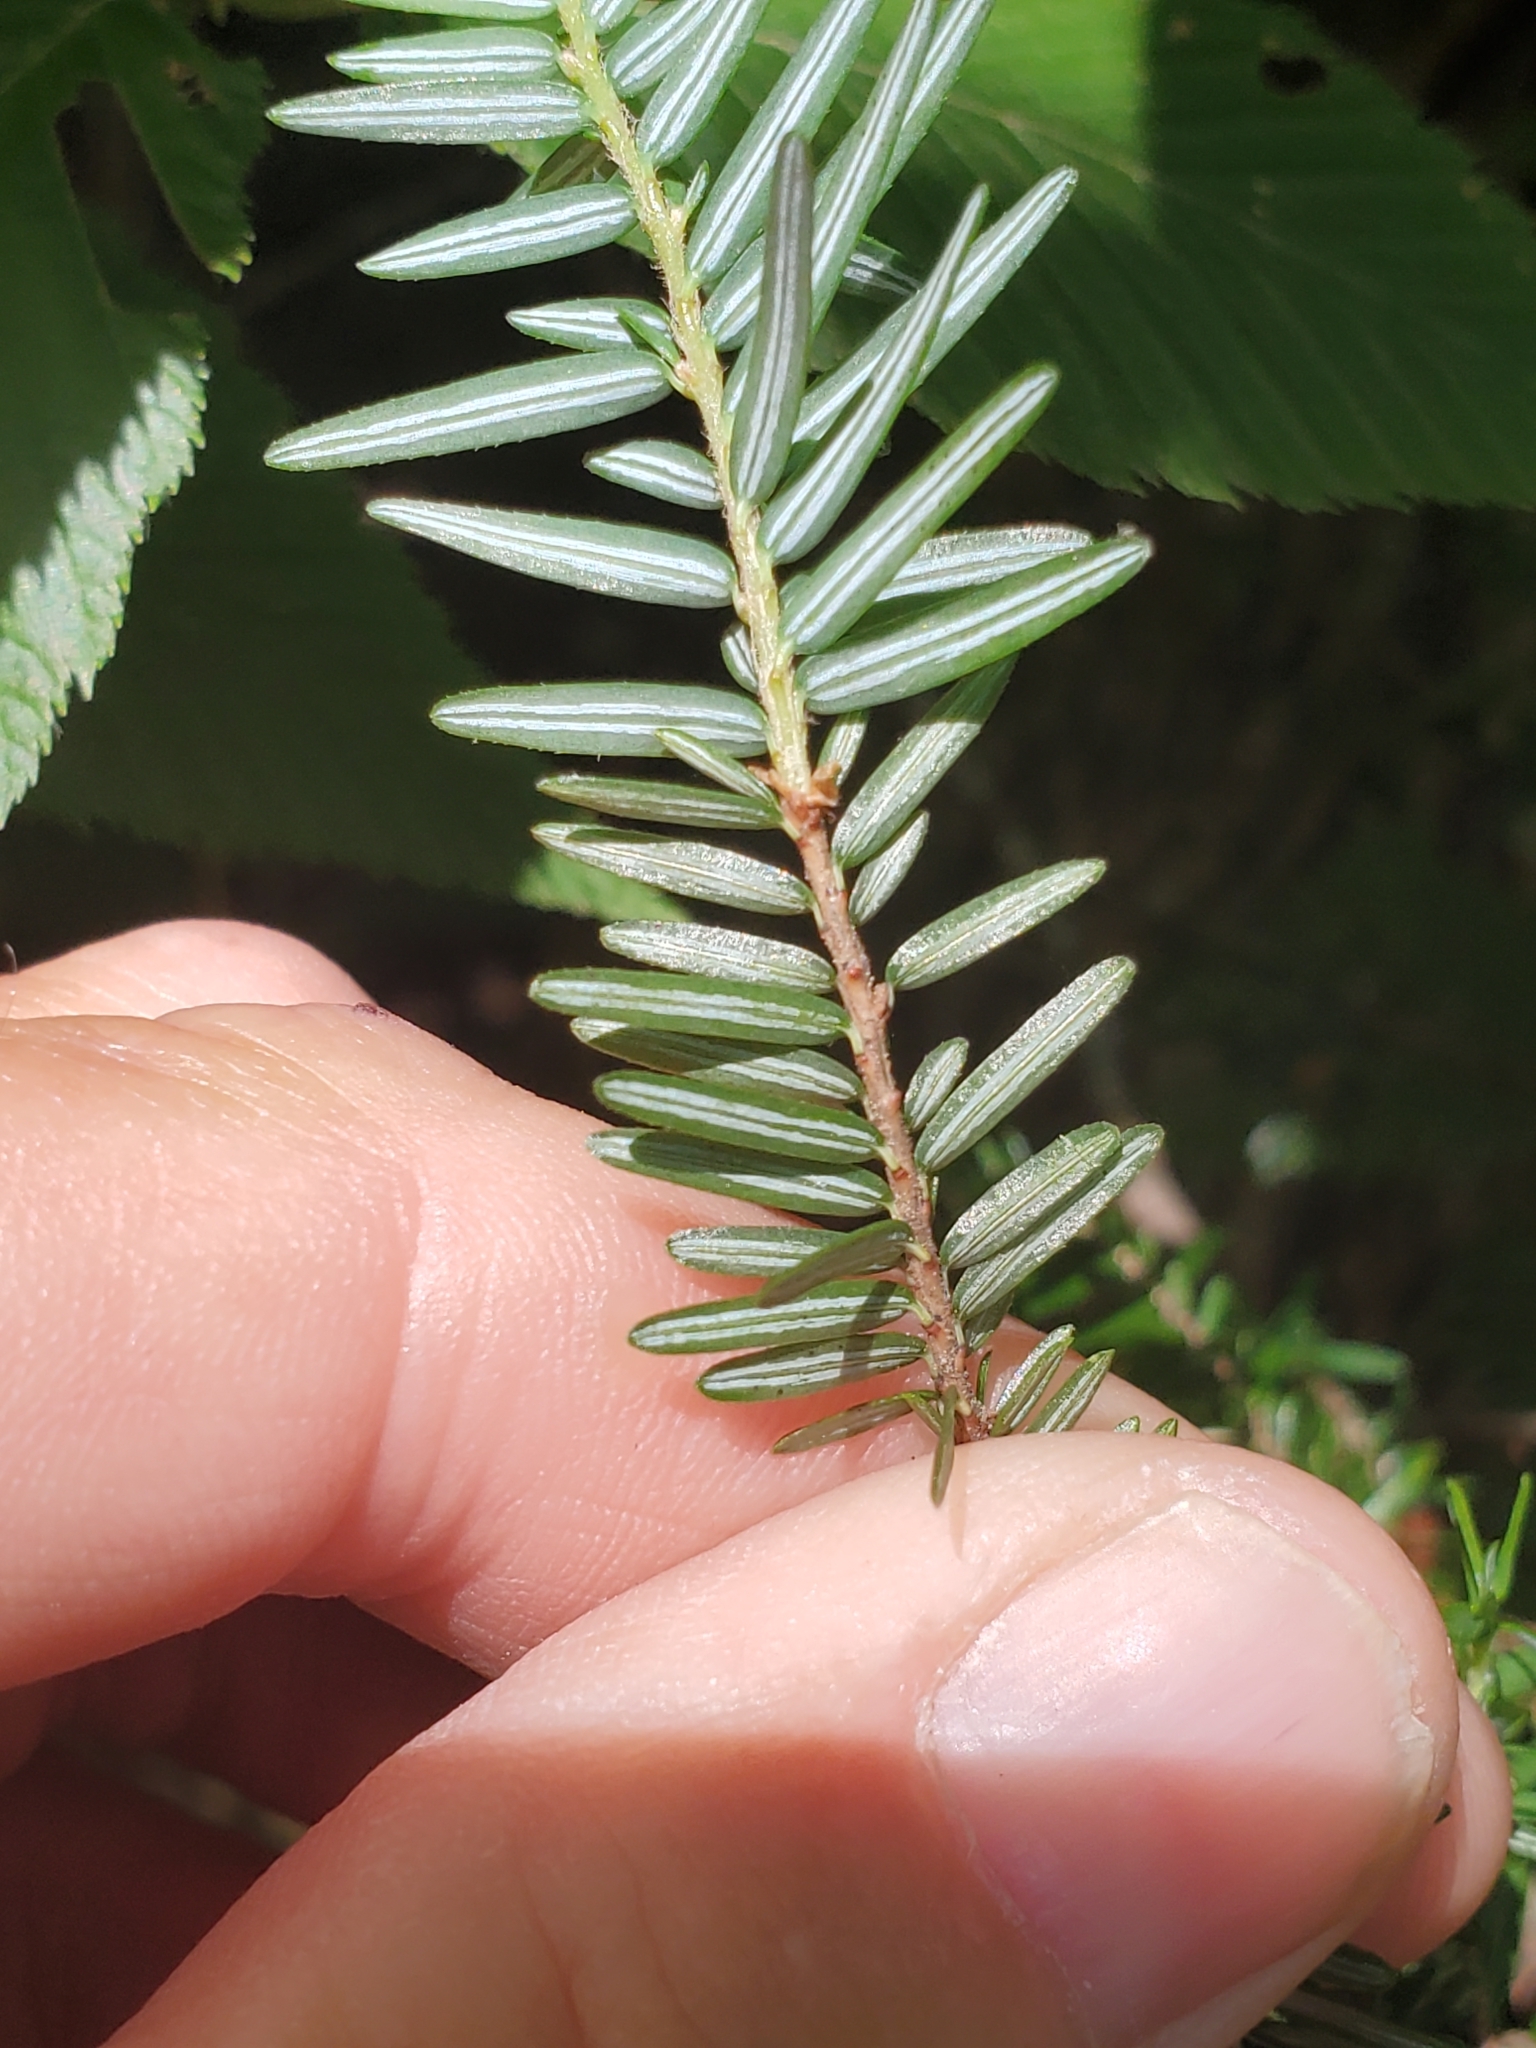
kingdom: Plantae
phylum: Tracheophyta
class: Pinopsida
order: Pinales
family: Pinaceae
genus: Tsuga
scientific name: Tsuga canadensis
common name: Eastern hemlock
